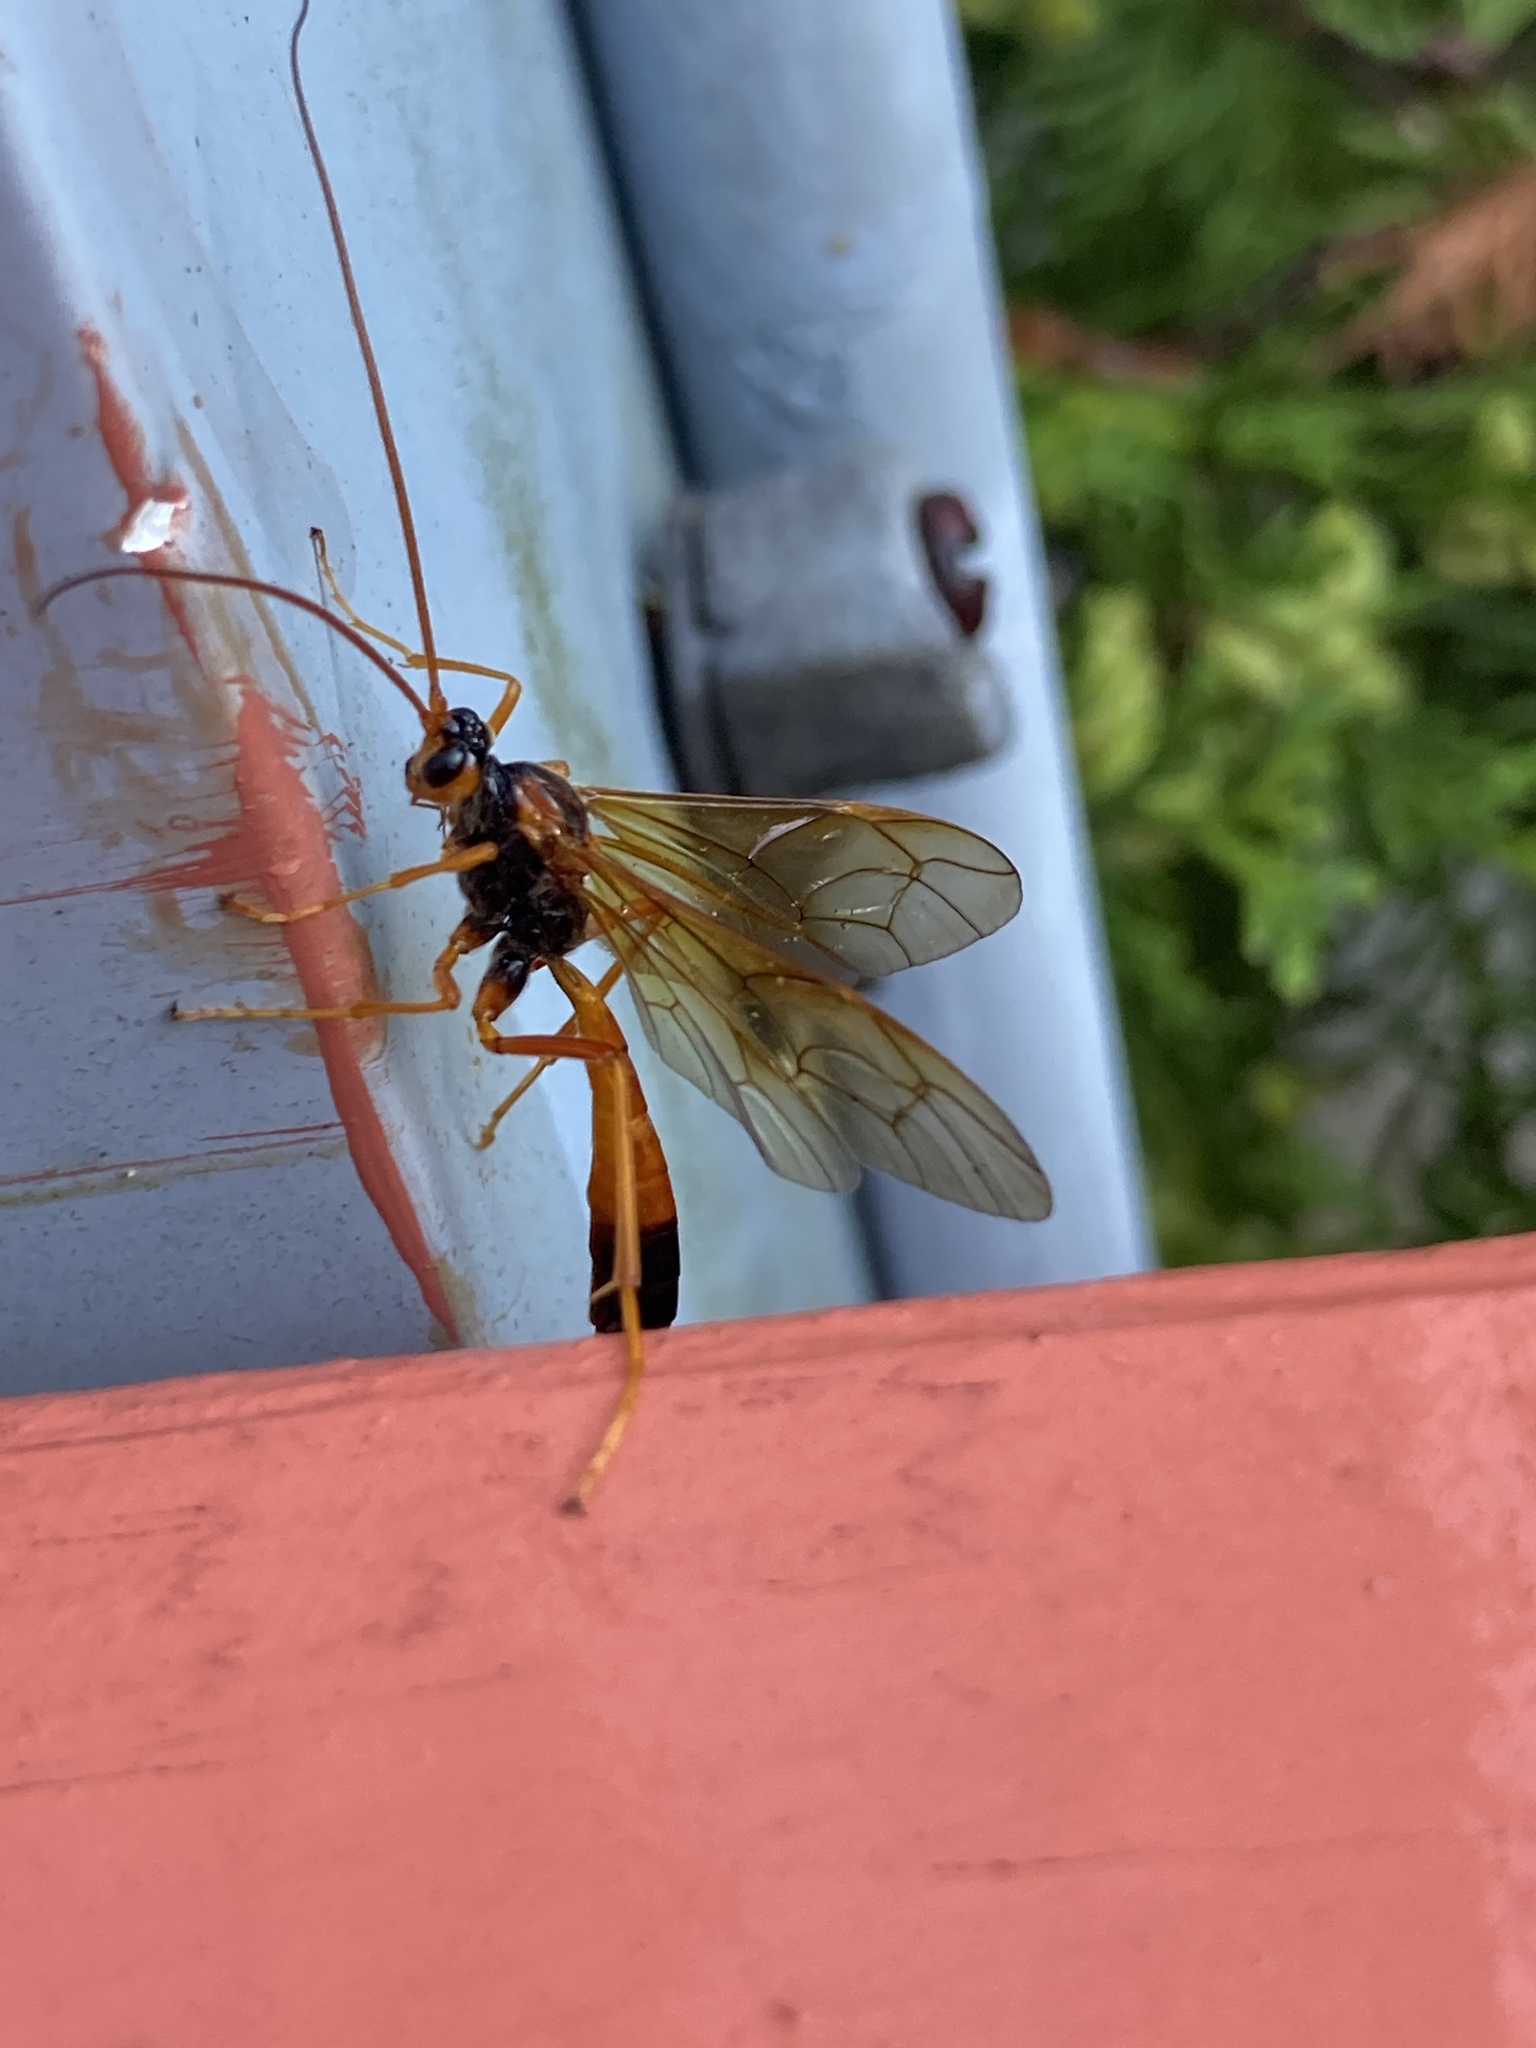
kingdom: Animalia
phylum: Arthropoda
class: Insecta
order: Hymenoptera
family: Ichneumonidae
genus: Opheltes
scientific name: Opheltes glaucopterus
